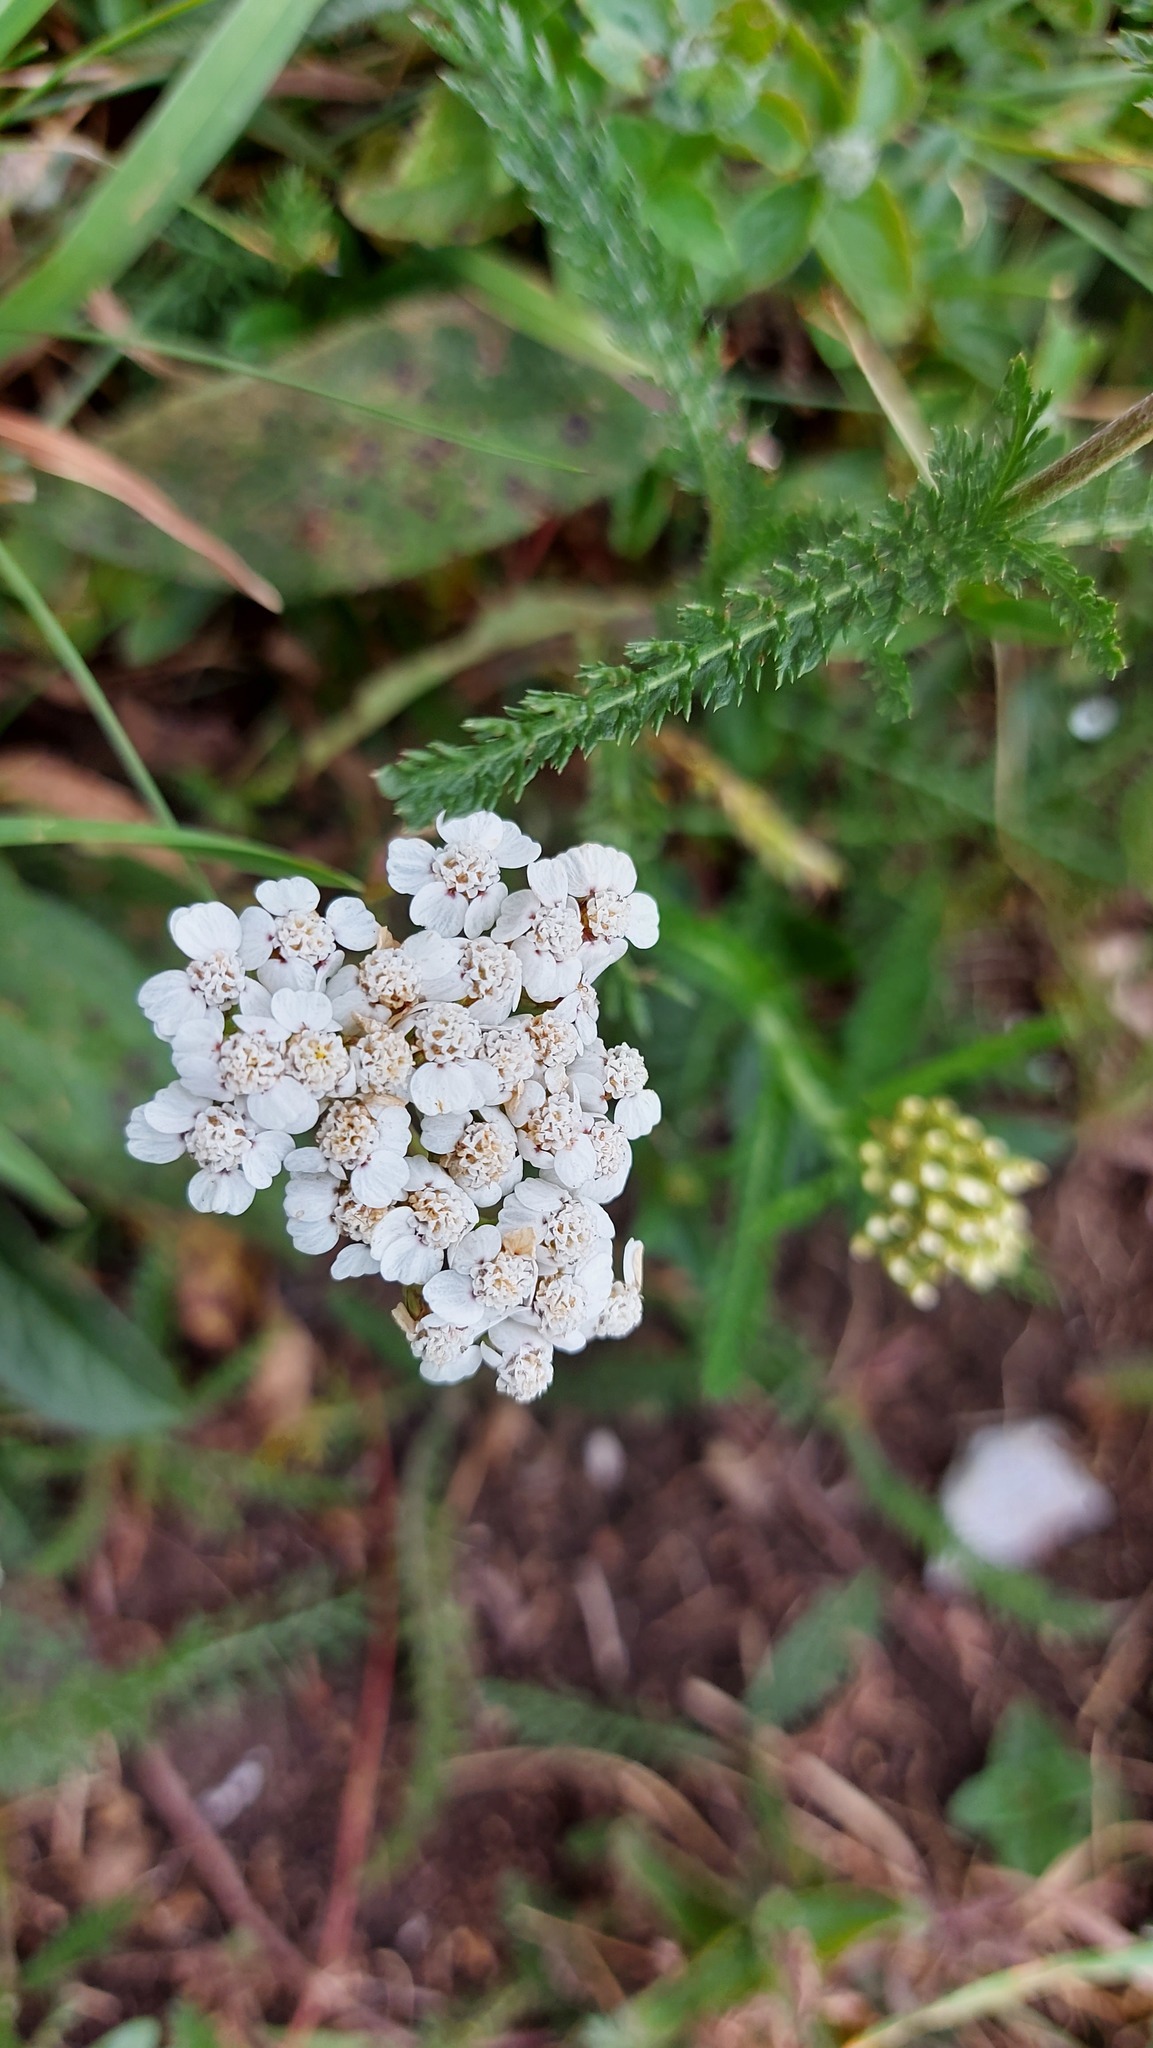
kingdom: Plantae
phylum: Tracheophyta
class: Magnoliopsida
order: Asterales
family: Asteraceae
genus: Achillea
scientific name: Achillea millefolium
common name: Yarrow
